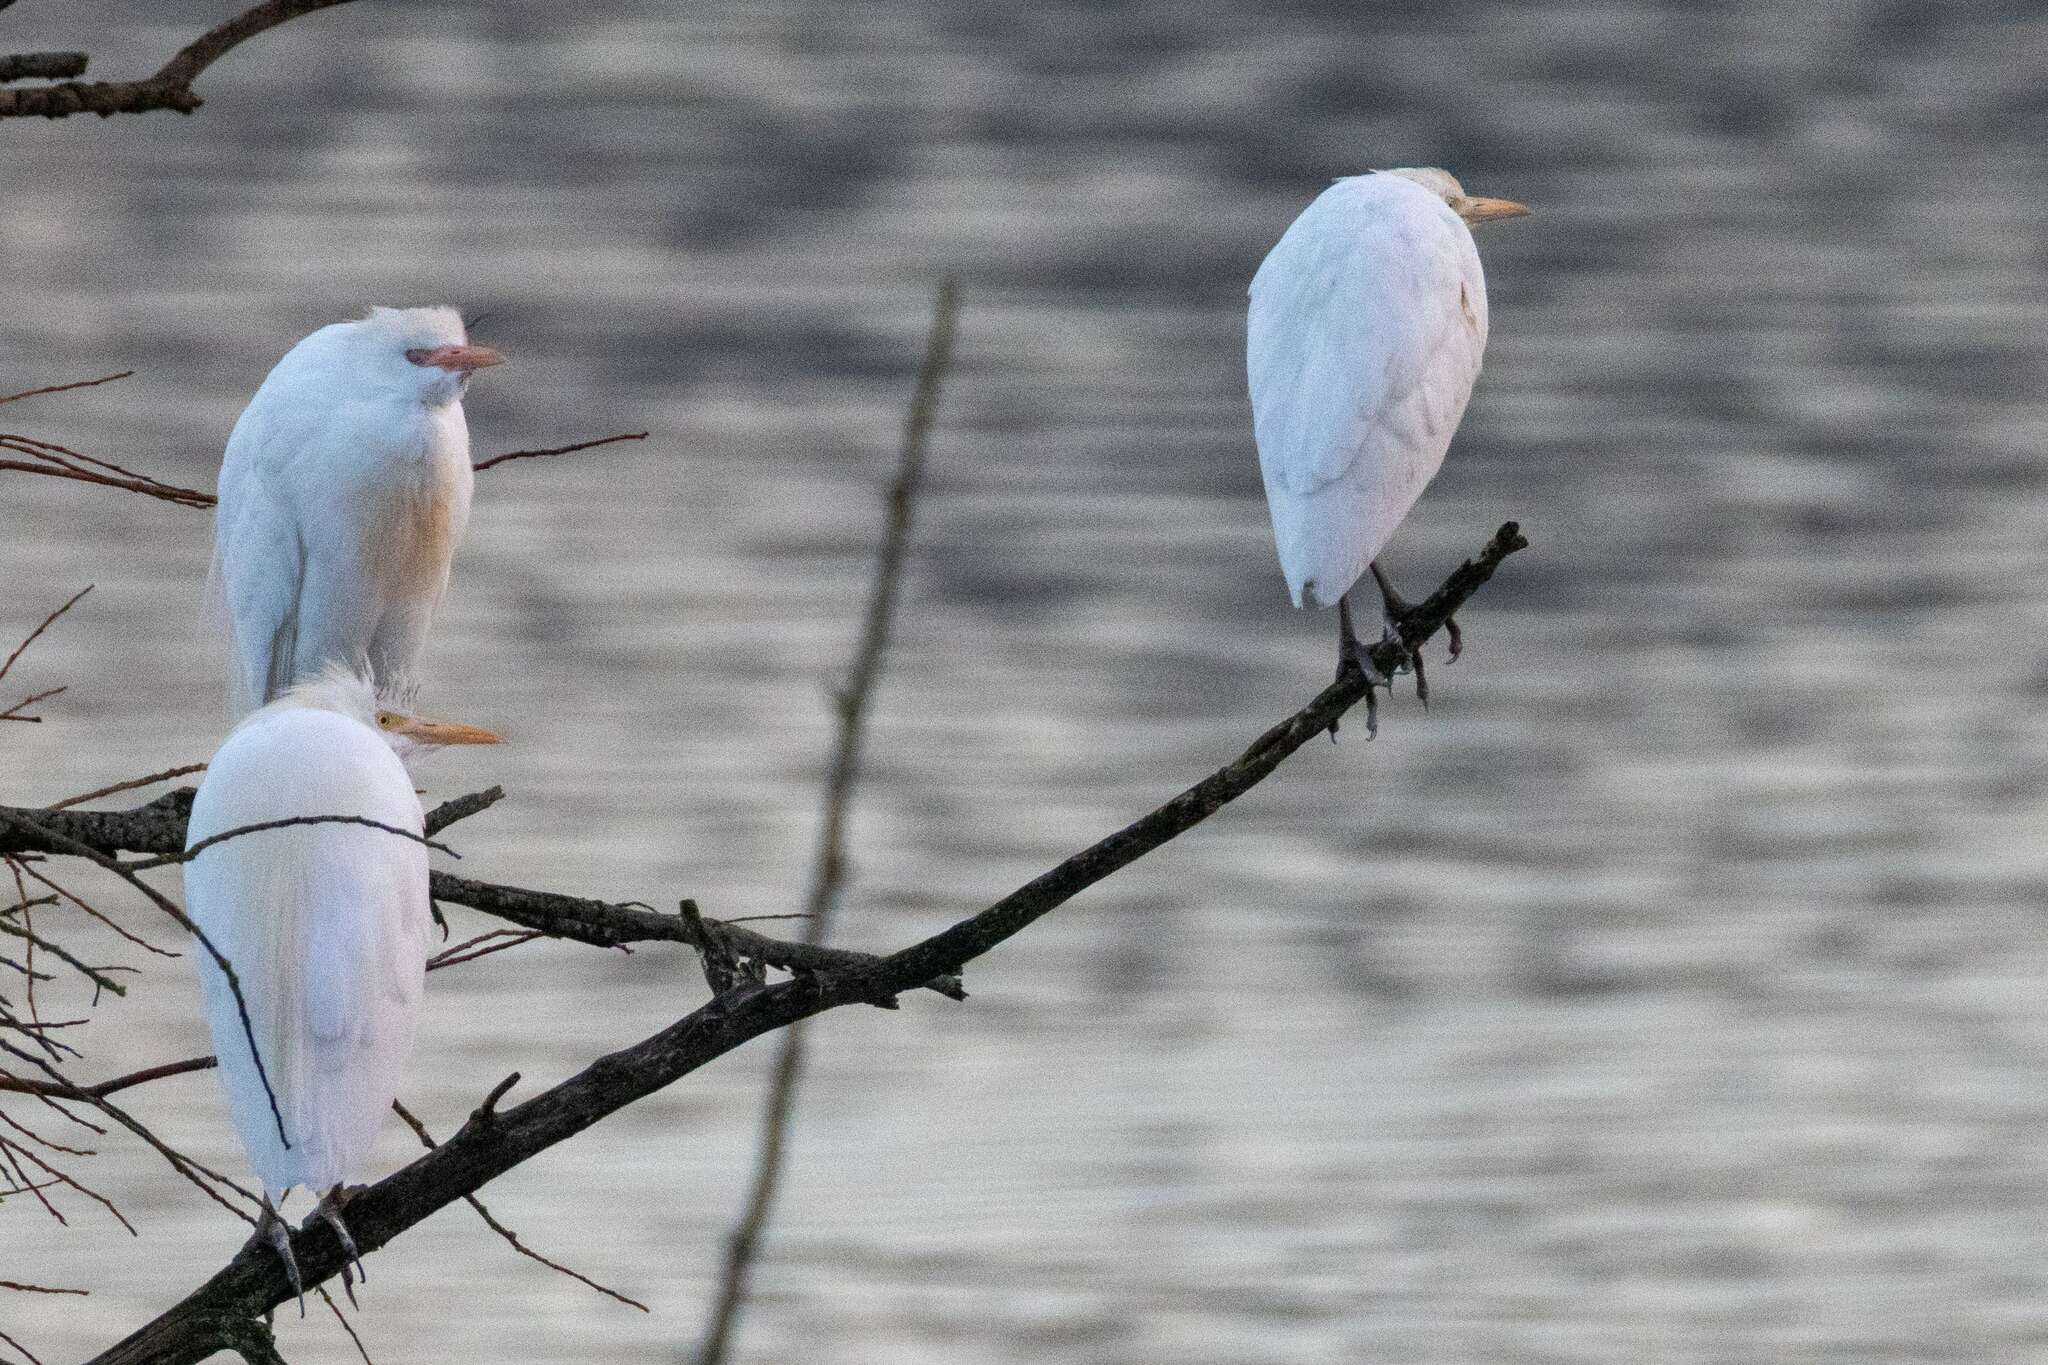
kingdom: Animalia
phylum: Chordata
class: Aves
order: Pelecaniformes
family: Ardeidae
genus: Bubulcus
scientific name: Bubulcus ibis
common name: Cattle egret
